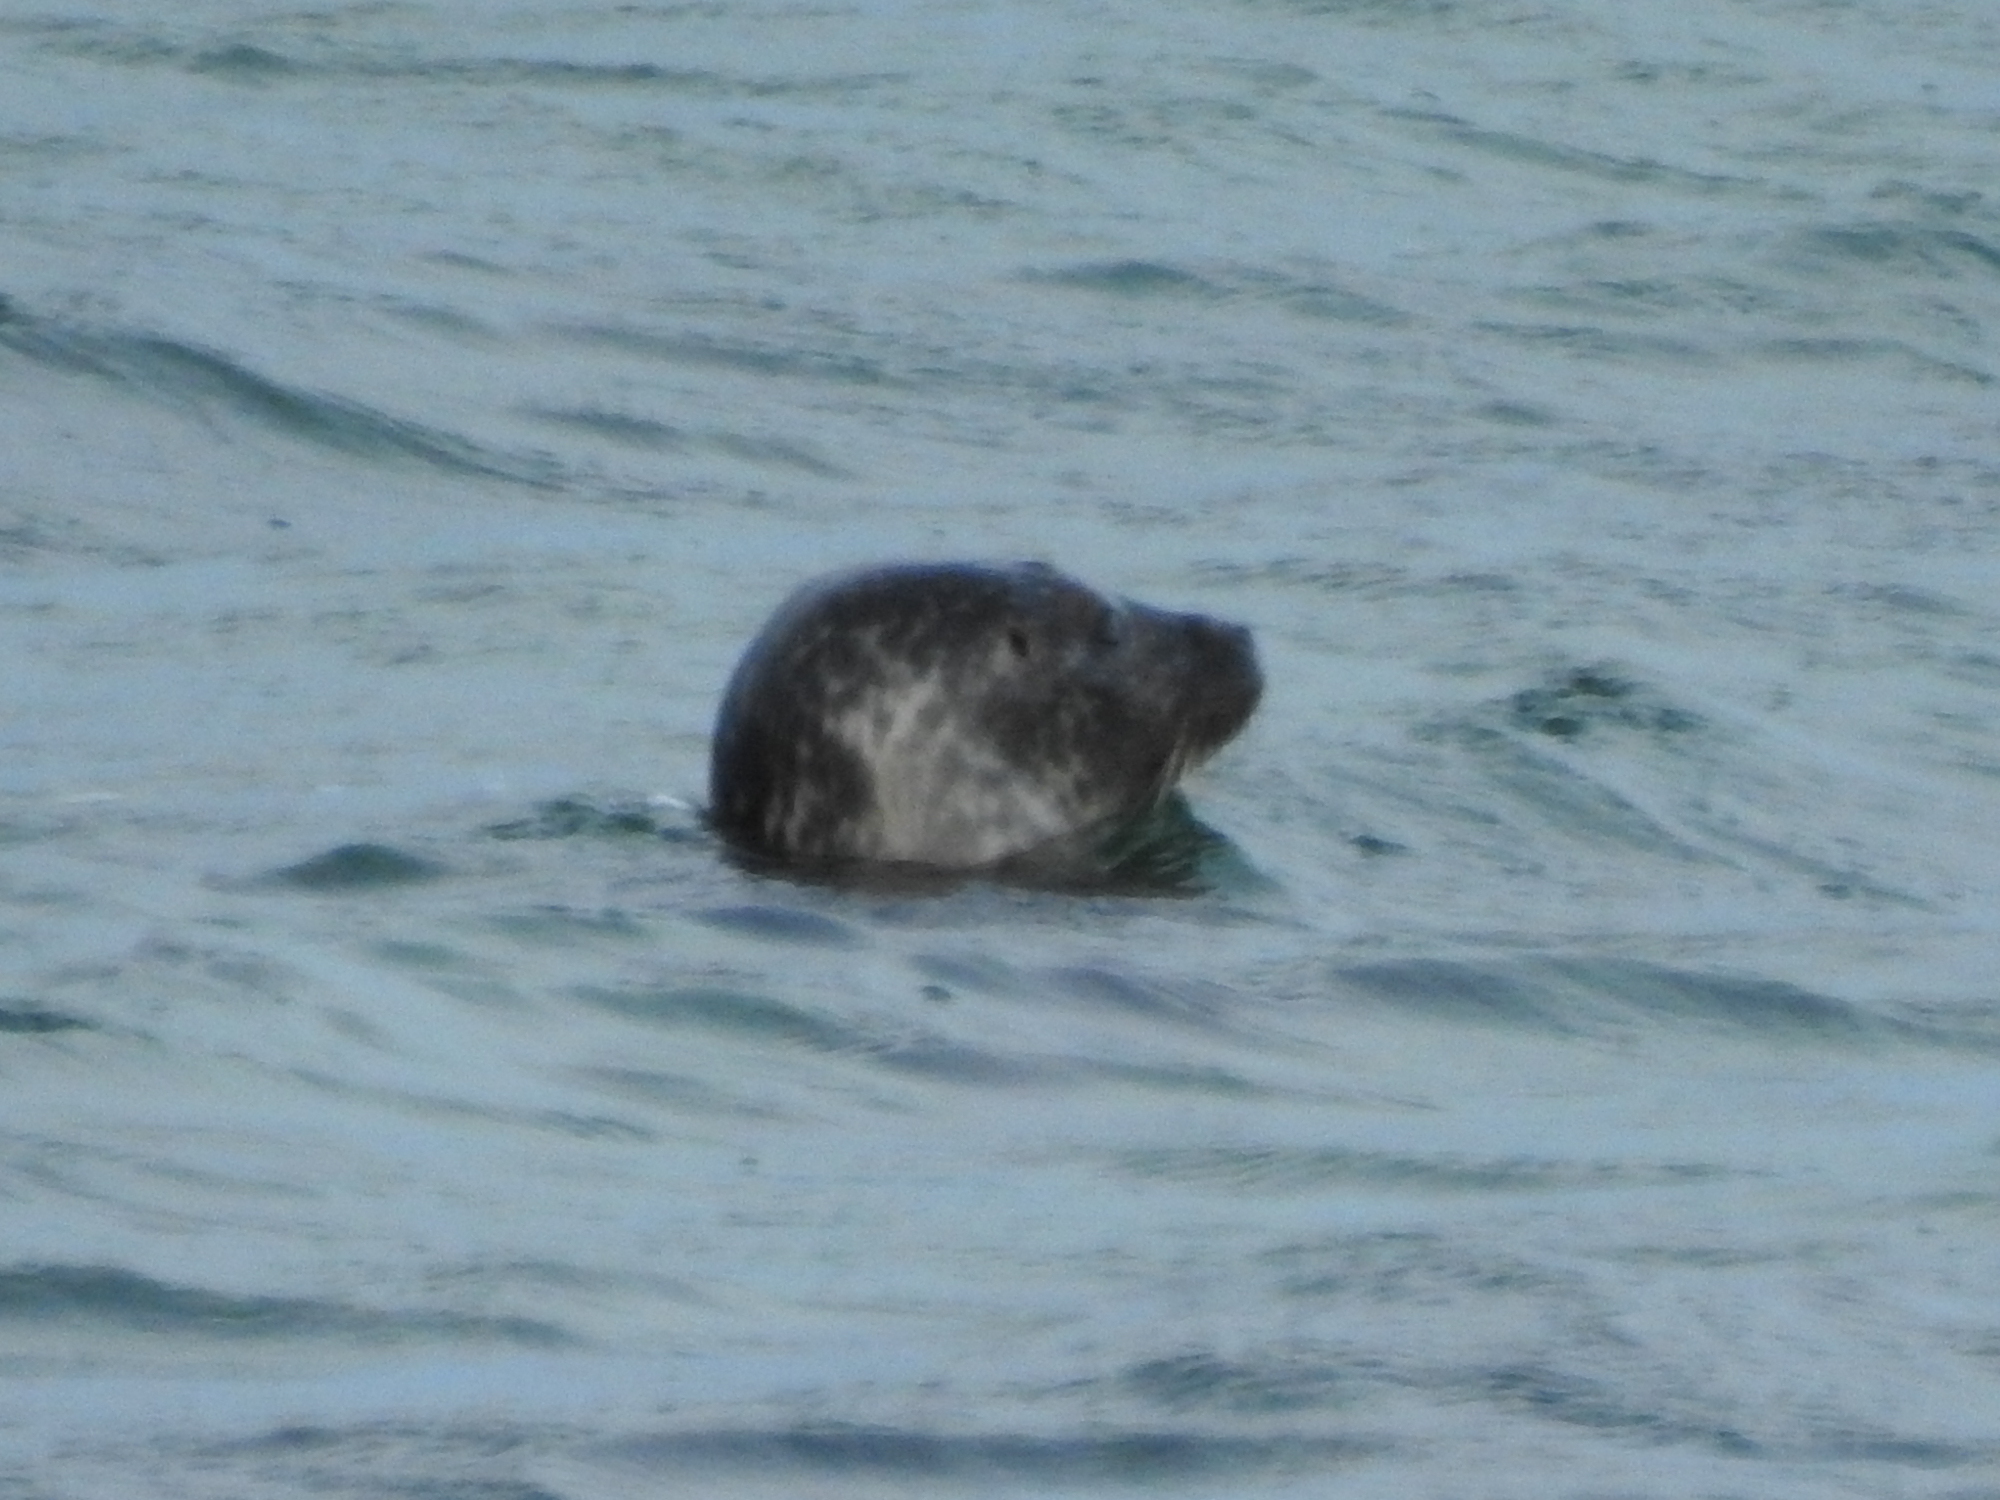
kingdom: Animalia
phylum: Chordata
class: Mammalia
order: Carnivora
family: Phocidae
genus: Phoca
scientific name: Phoca vitulina
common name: Harbor seal
